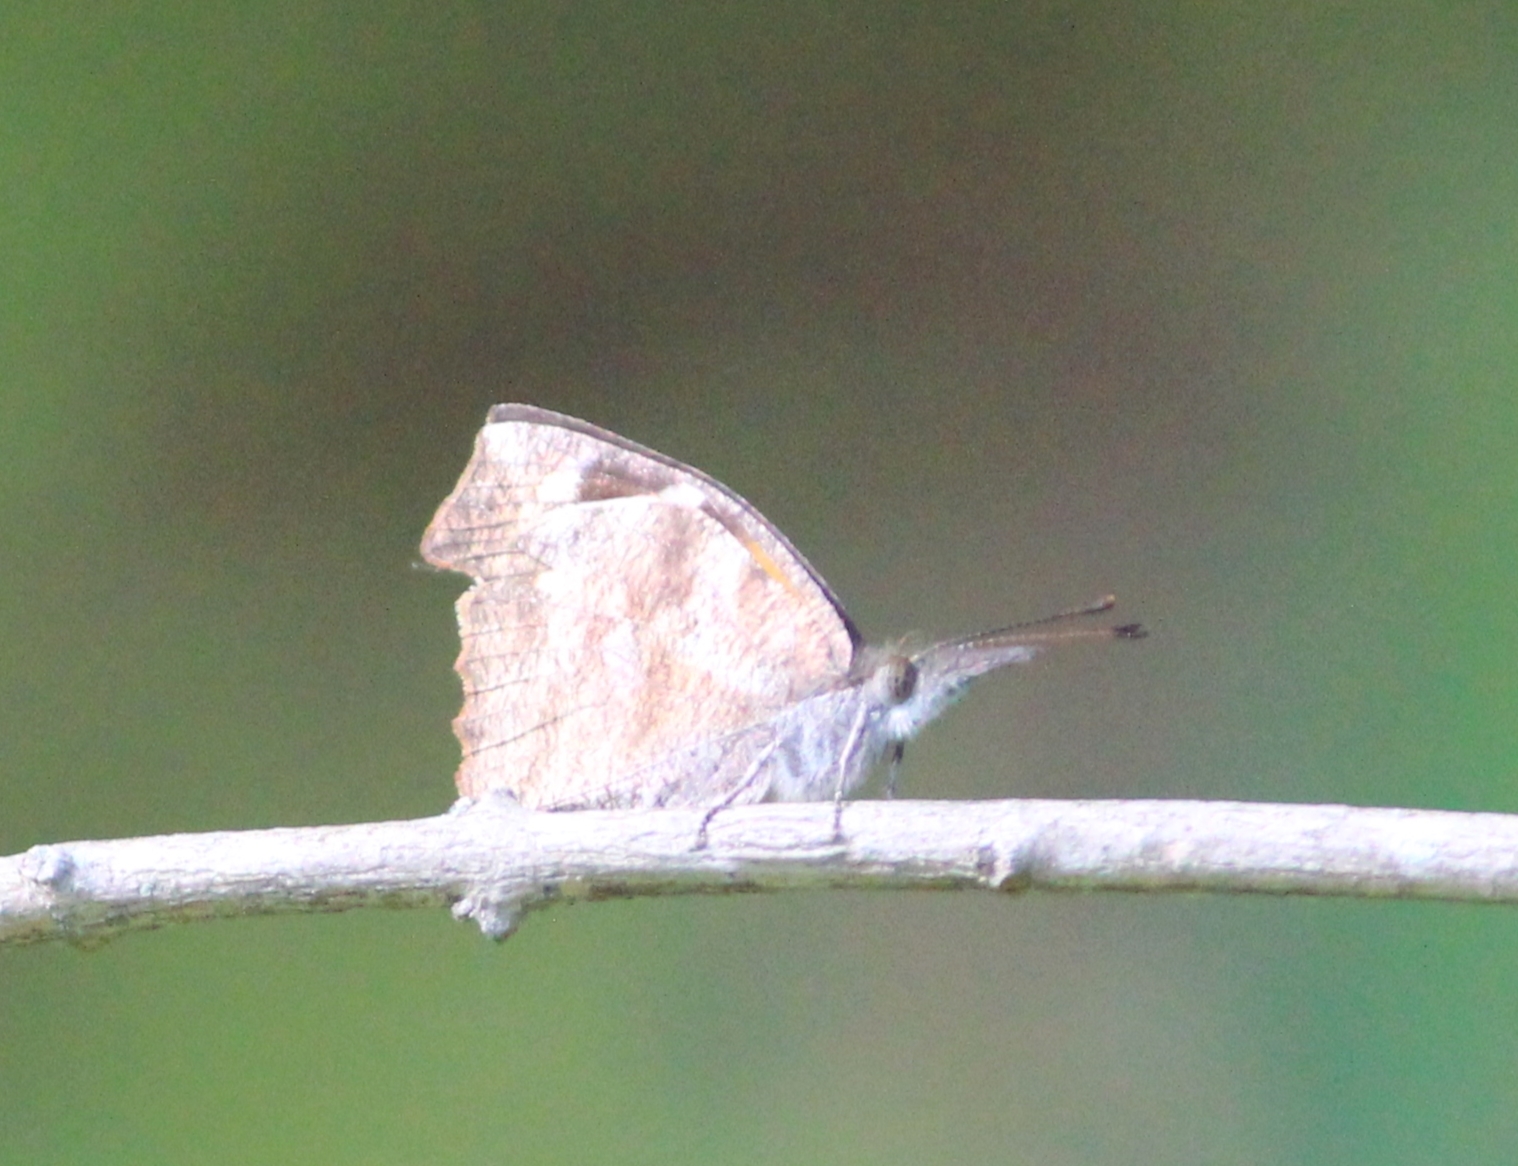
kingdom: Animalia
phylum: Arthropoda
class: Insecta
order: Lepidoptera
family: Nymphalidae
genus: Libytheana
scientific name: Libytheana carinenta
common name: American snout
